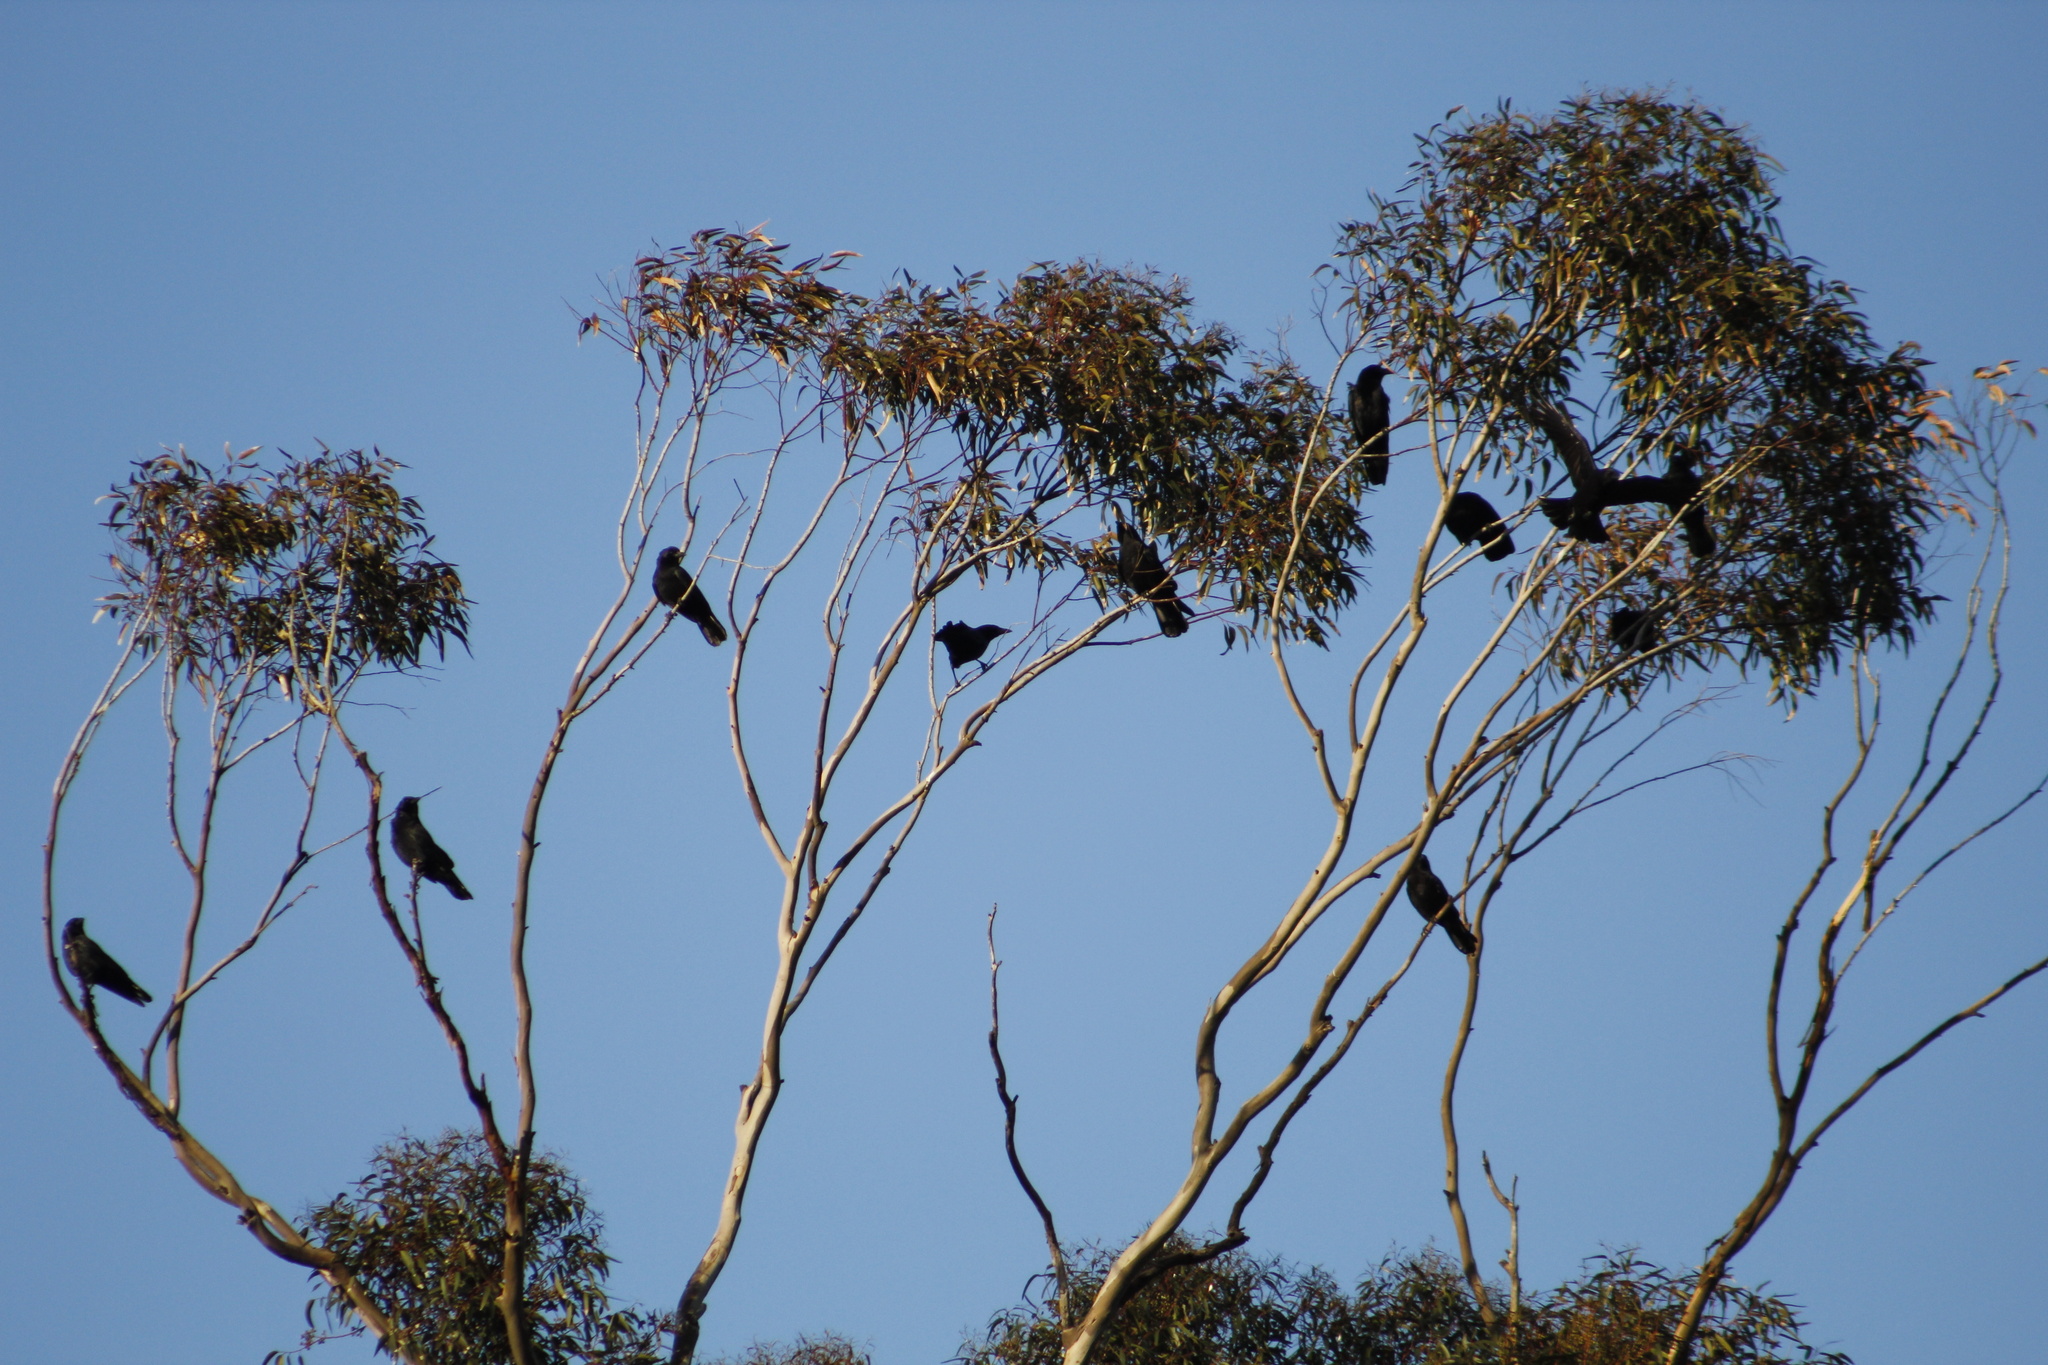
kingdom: Animalia
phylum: Chordata
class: Aves
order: Passeriformes
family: Corvidae
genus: Corvus
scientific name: Corvus brachyrhynchos
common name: American crow
